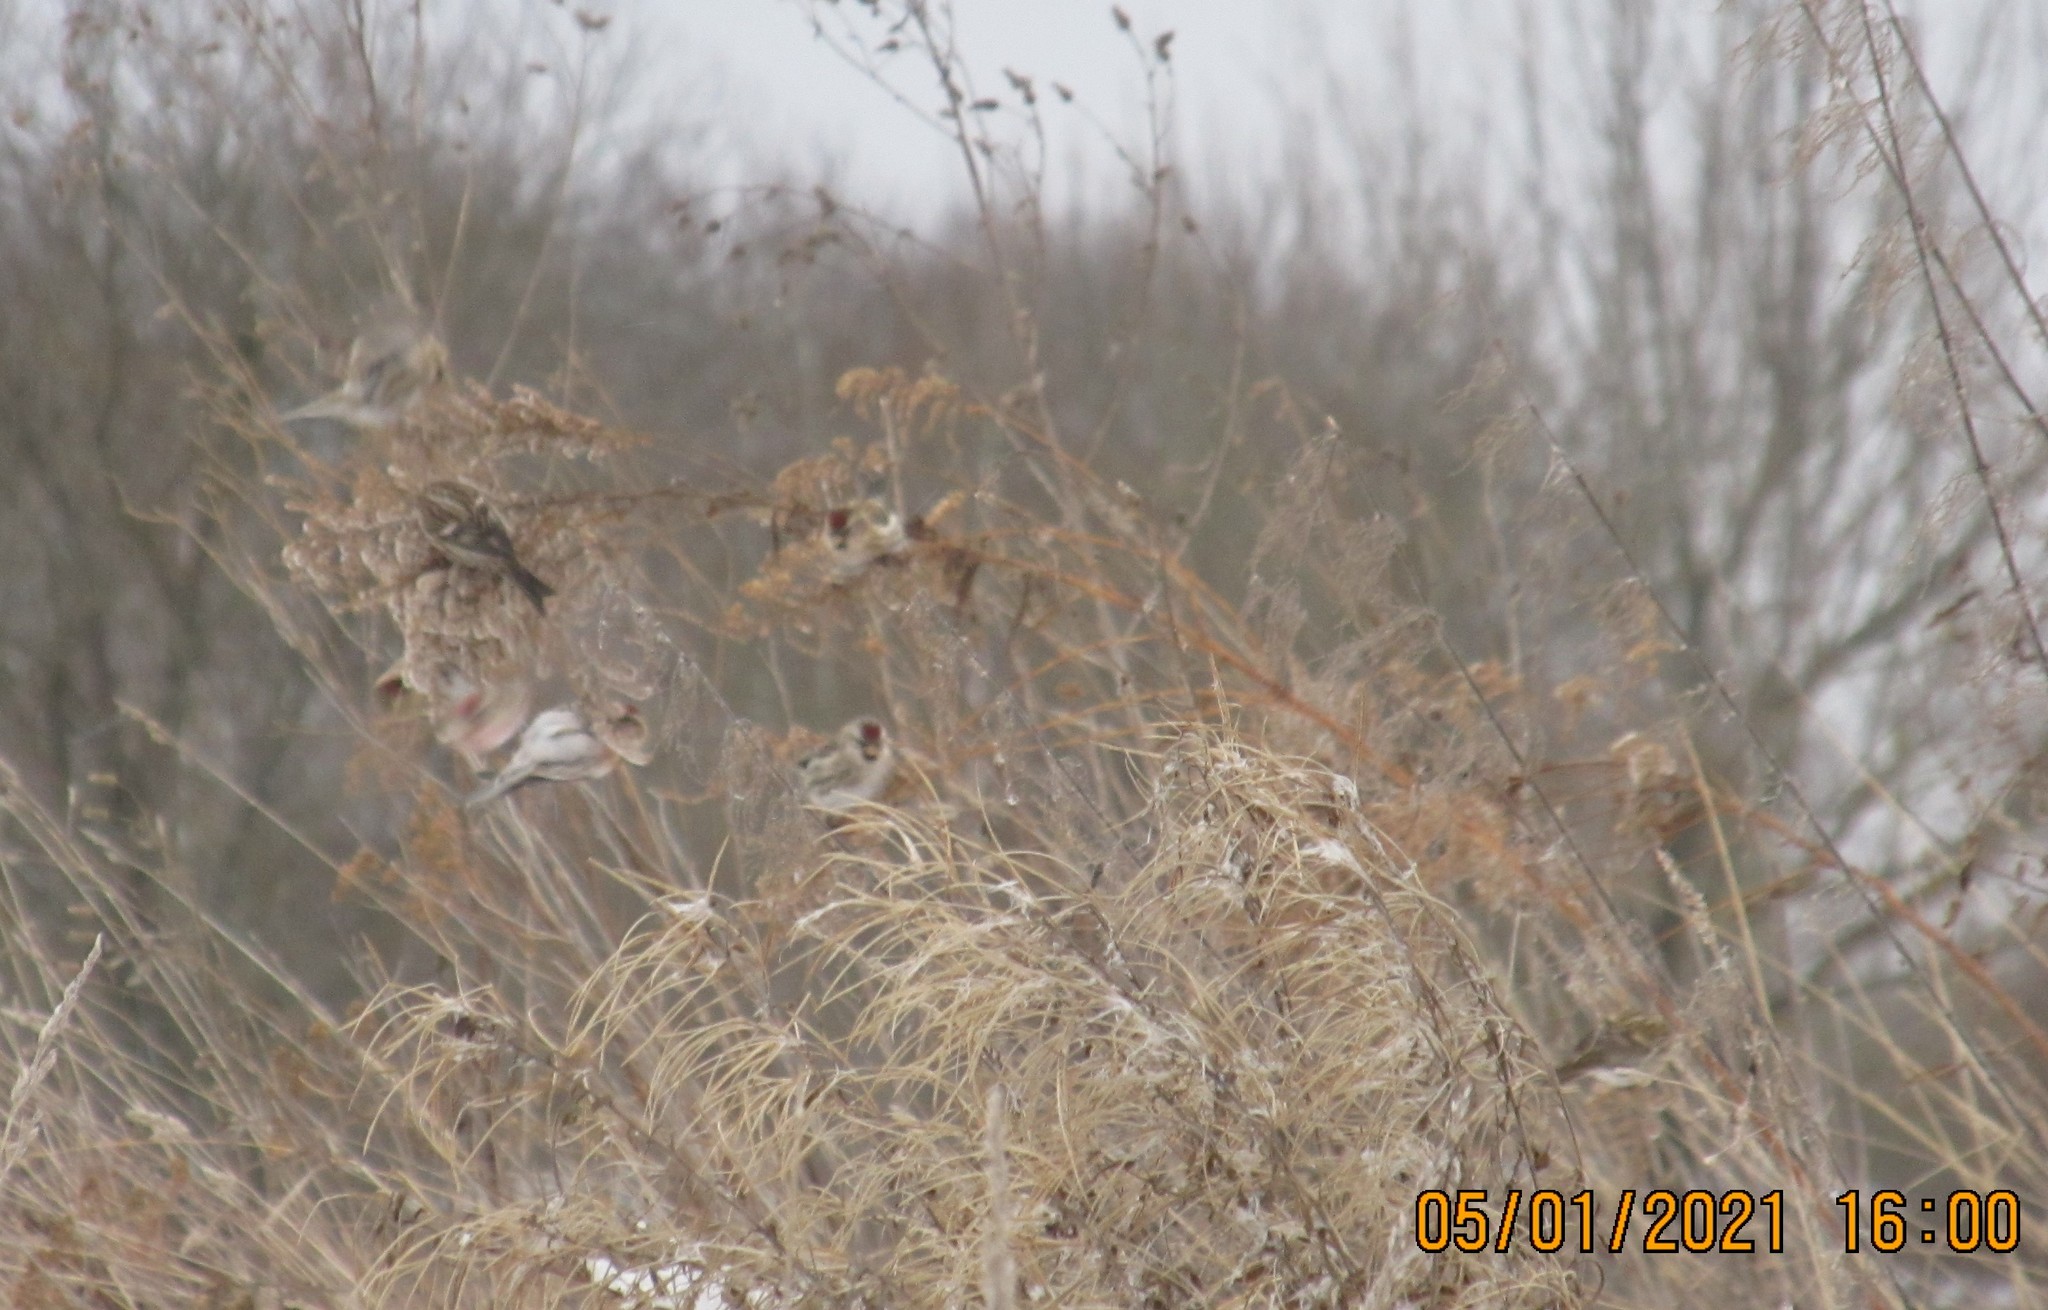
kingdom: Animalia
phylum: Chordata
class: Aves
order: Passeriformes
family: Fringillidae
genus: Acanthis
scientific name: Acanthis flammea
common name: Common redpoll
